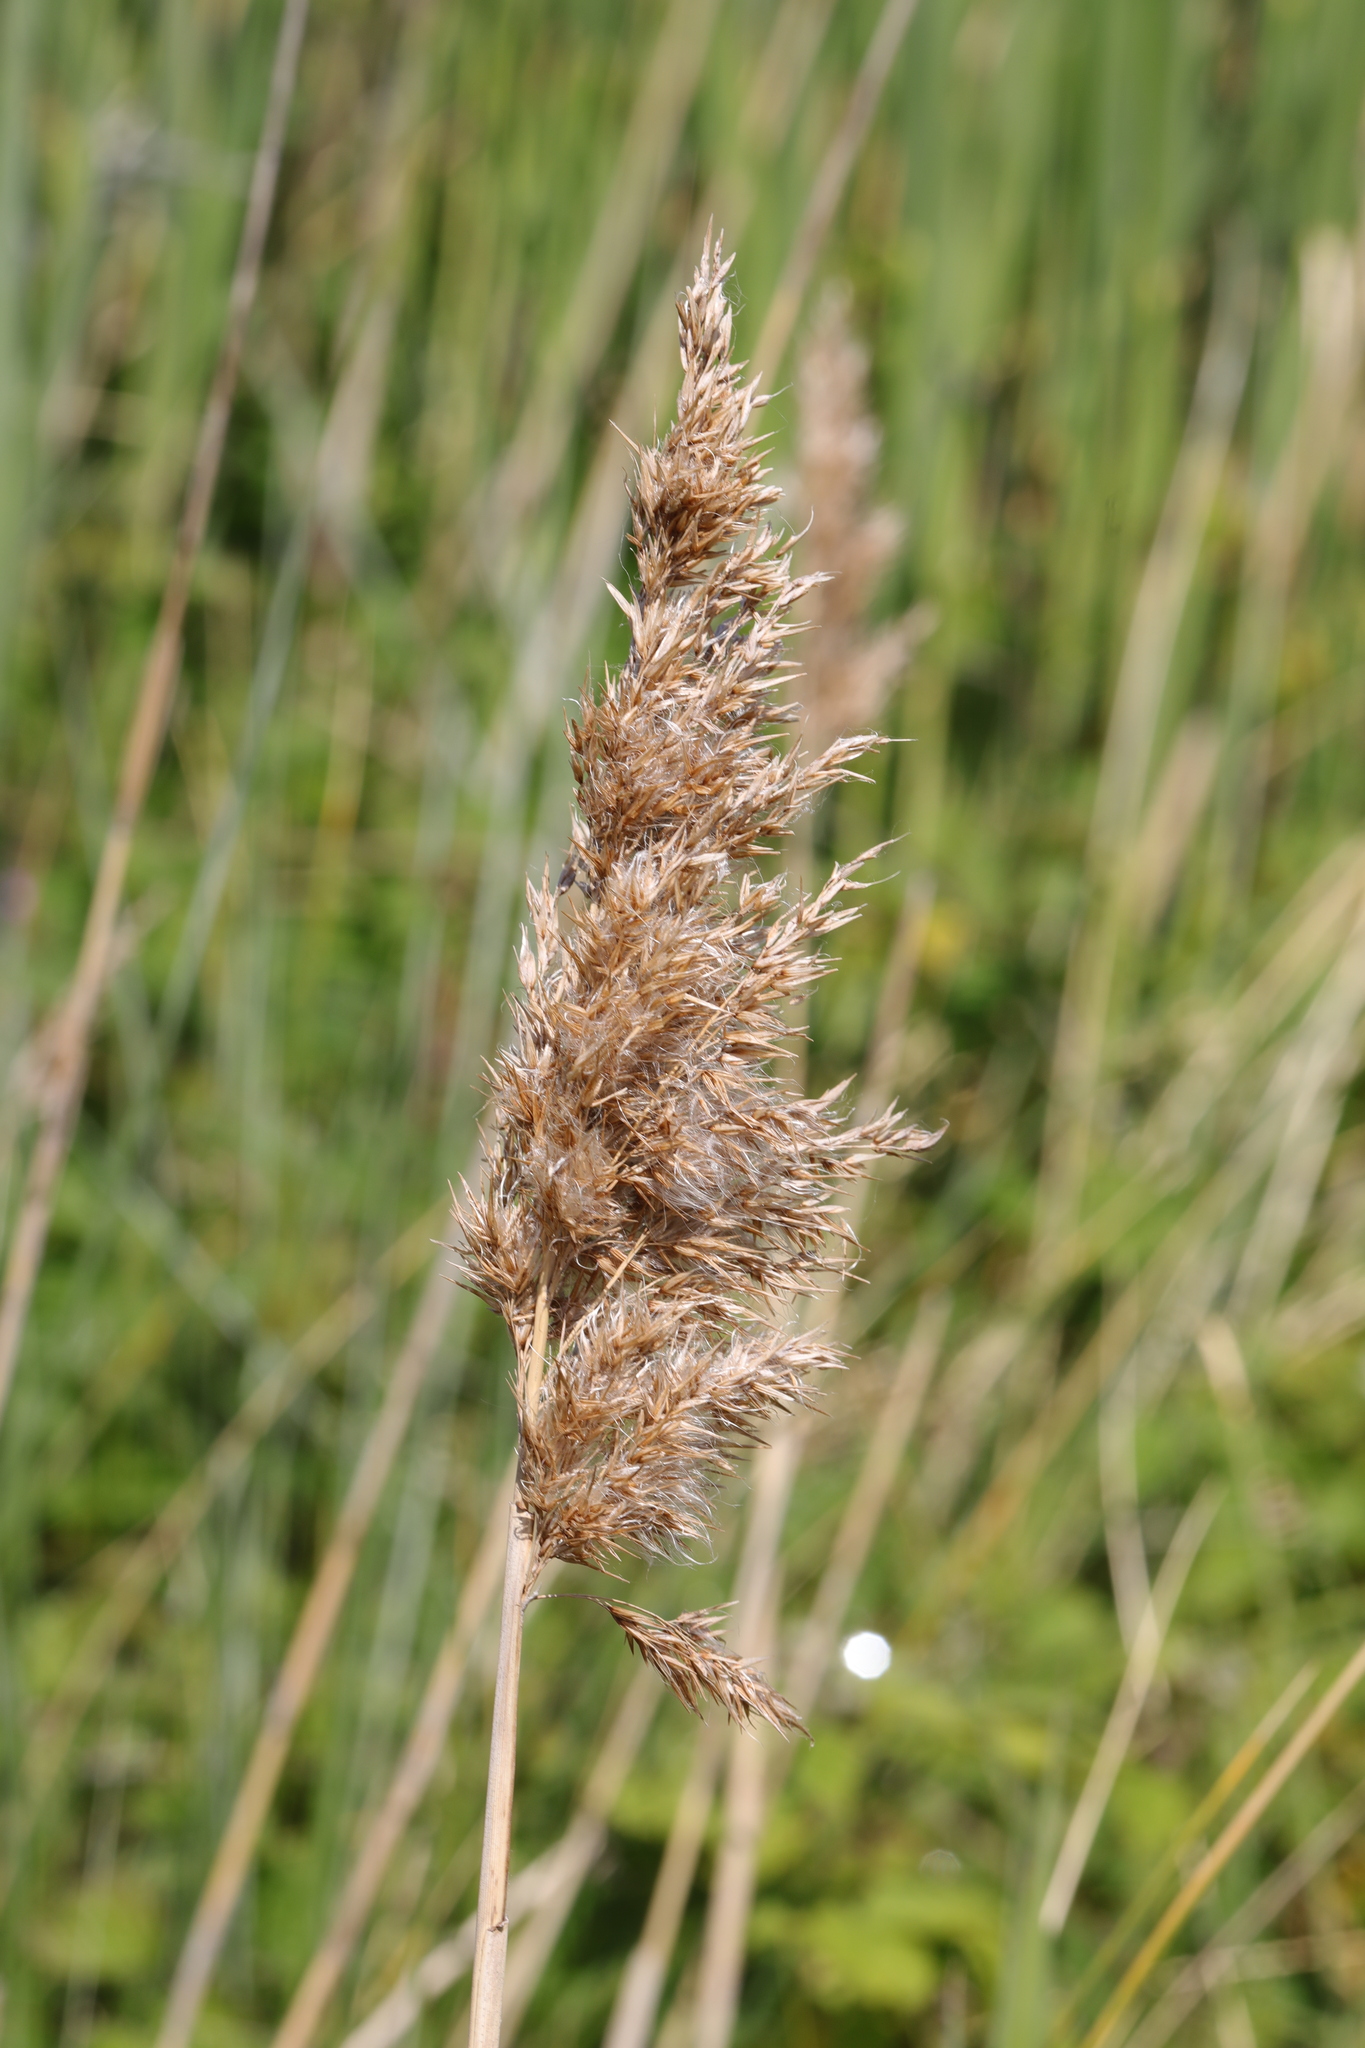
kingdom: Plantae
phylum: Tracheophyta
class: Liliopsida
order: Poales
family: Poaceae
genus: Phragmites
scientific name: Phragmites australis
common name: Common reed
